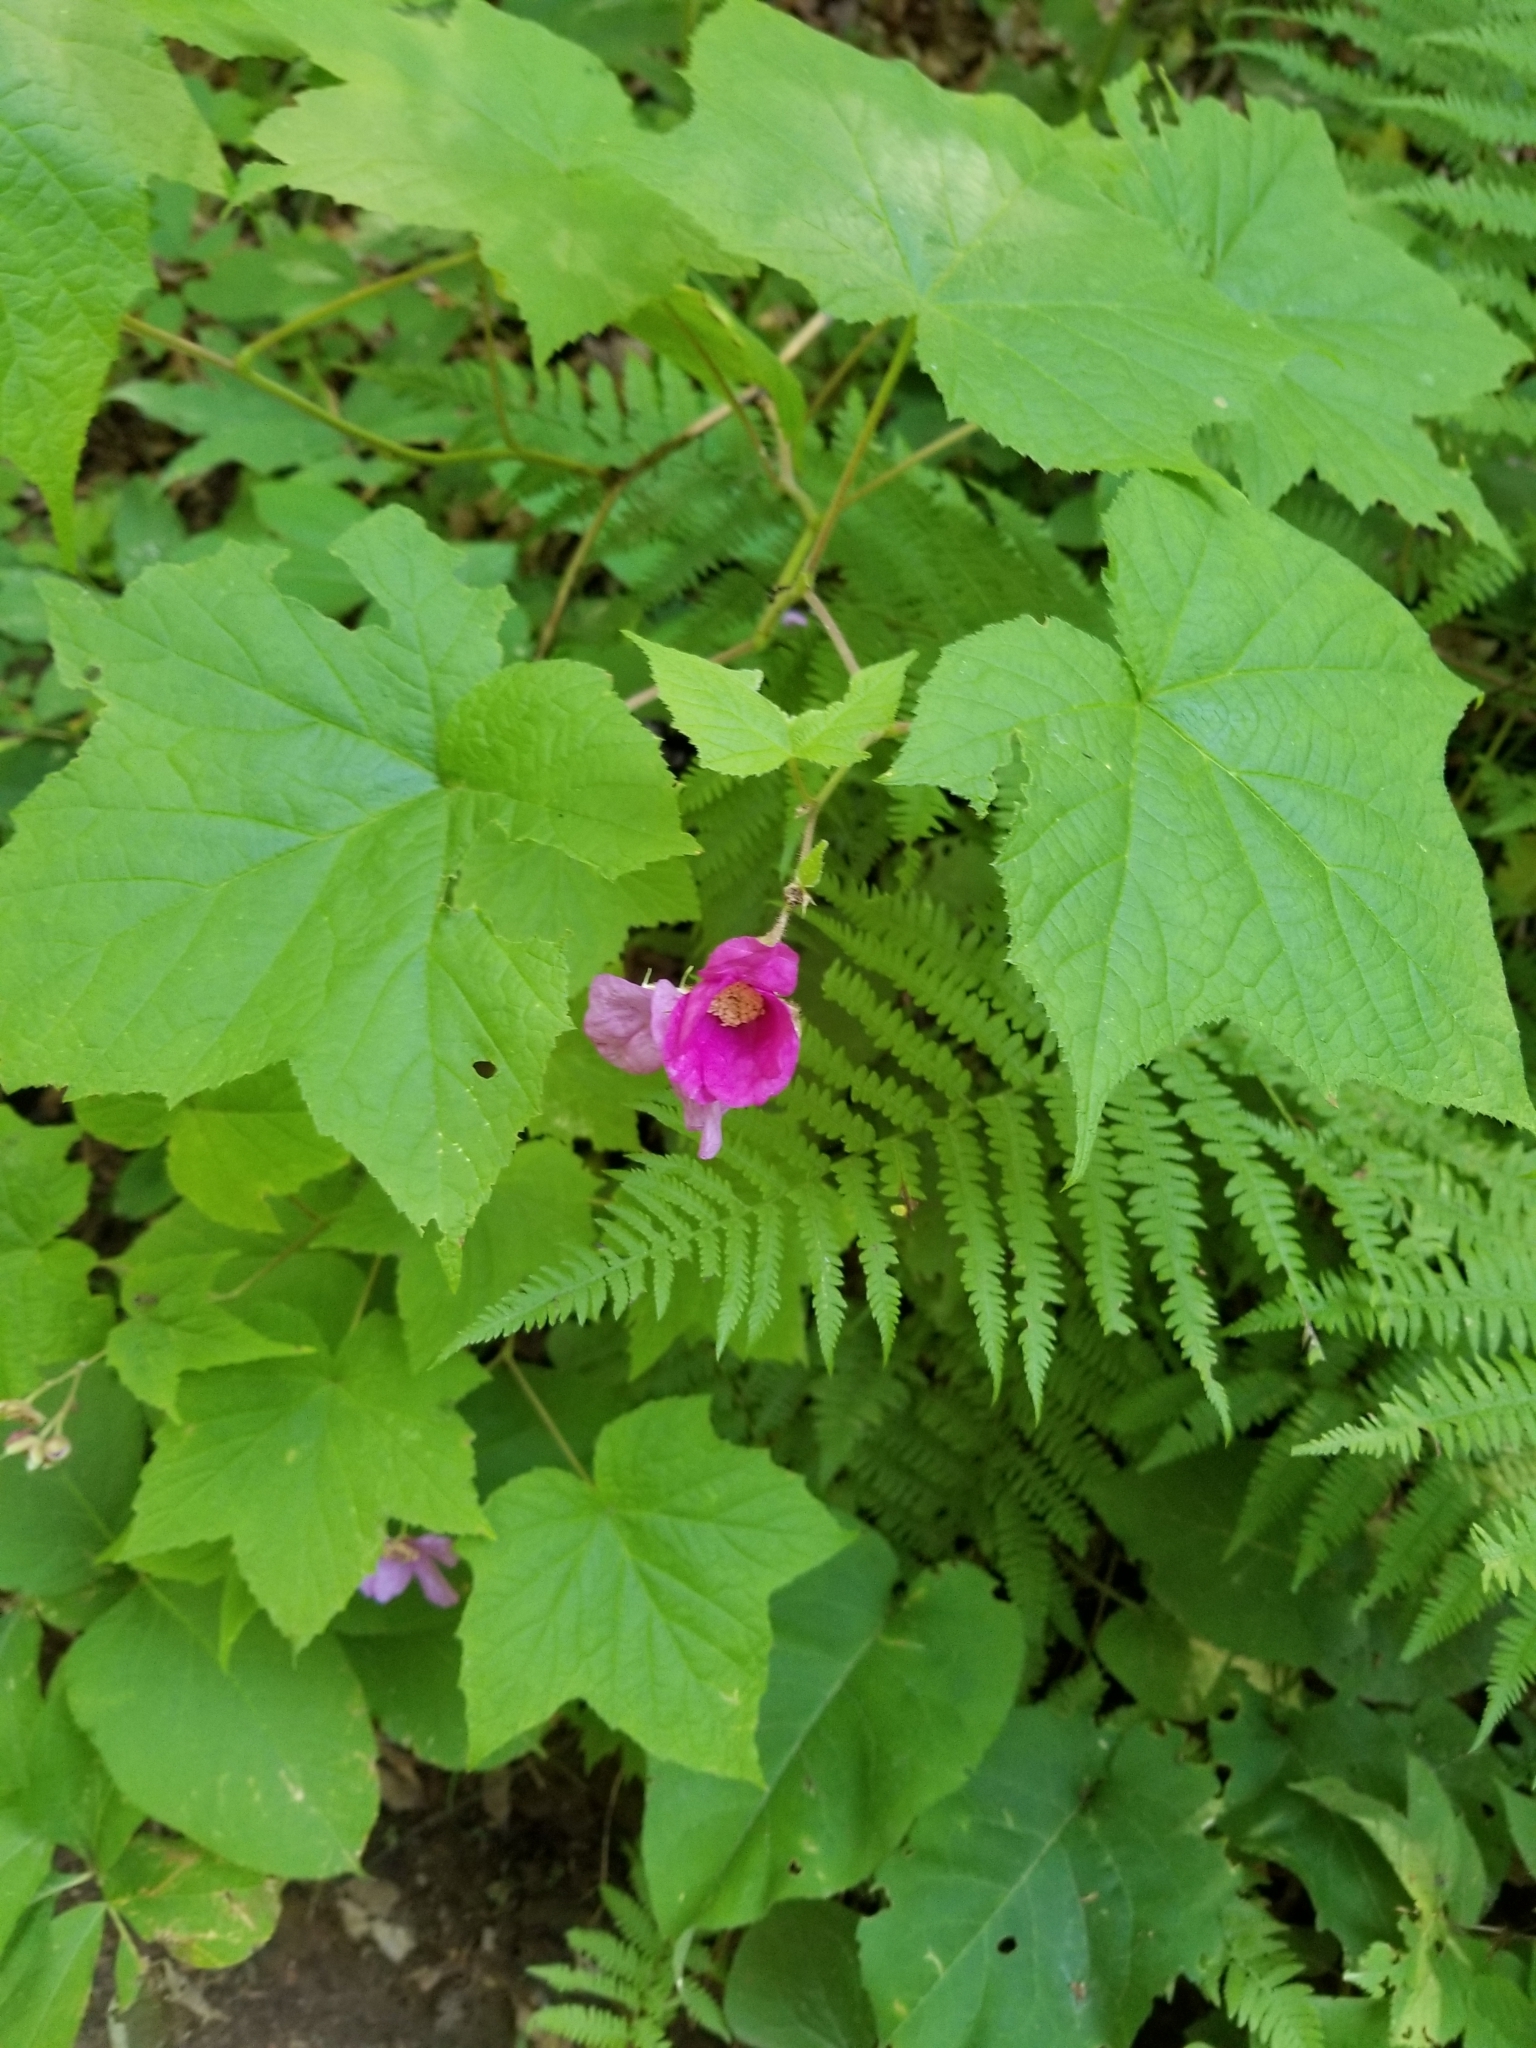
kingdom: Plantae
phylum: Tracheophyta
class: Magnoliopsida
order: Rosales
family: Rosaceae
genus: Rubus
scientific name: Rubus odoratus
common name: Purple-flowered raspberry
